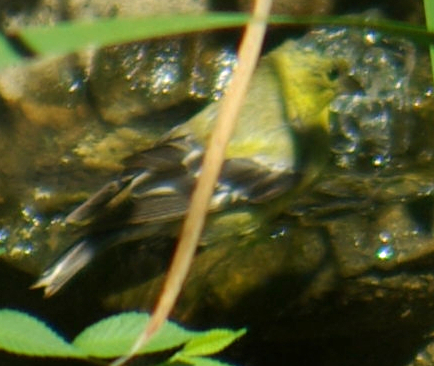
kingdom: Animalia
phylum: Chordata
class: Aves
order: Passeriformes
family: Fringillidae
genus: Spinus
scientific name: Spinus tristis
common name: American goldfinch
